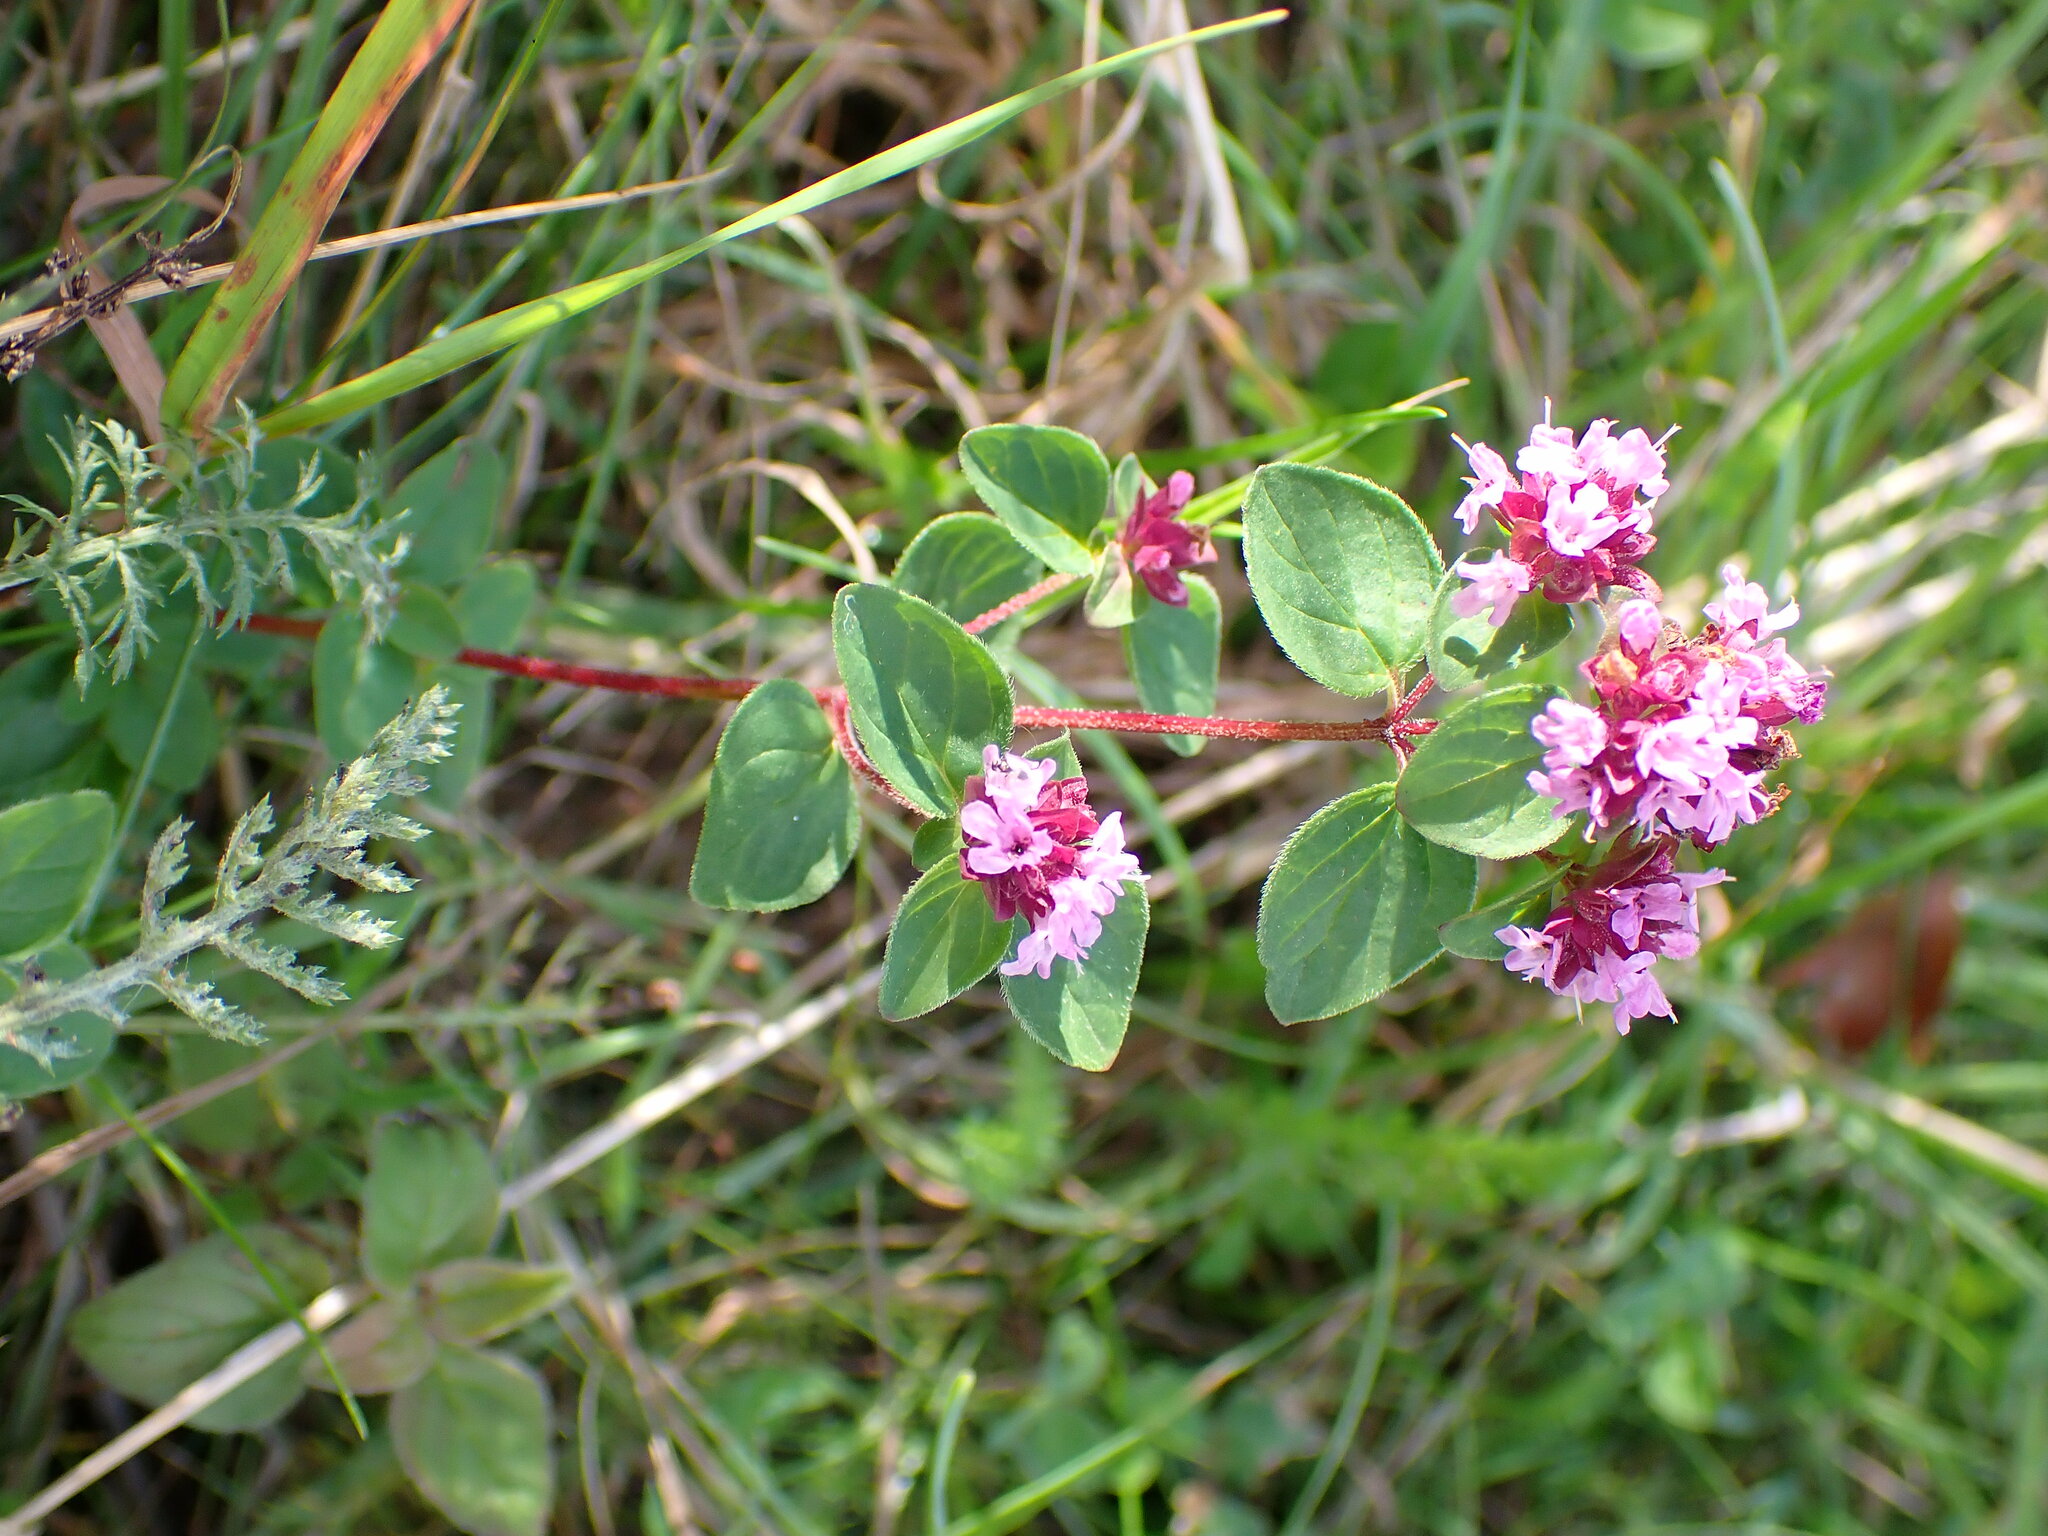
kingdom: Plantae
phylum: Tracheophyta
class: Magnoliopsida
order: Lamiales
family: Lamiaceae
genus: Origanum
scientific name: Origanum vulgare
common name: Wild marjoram
